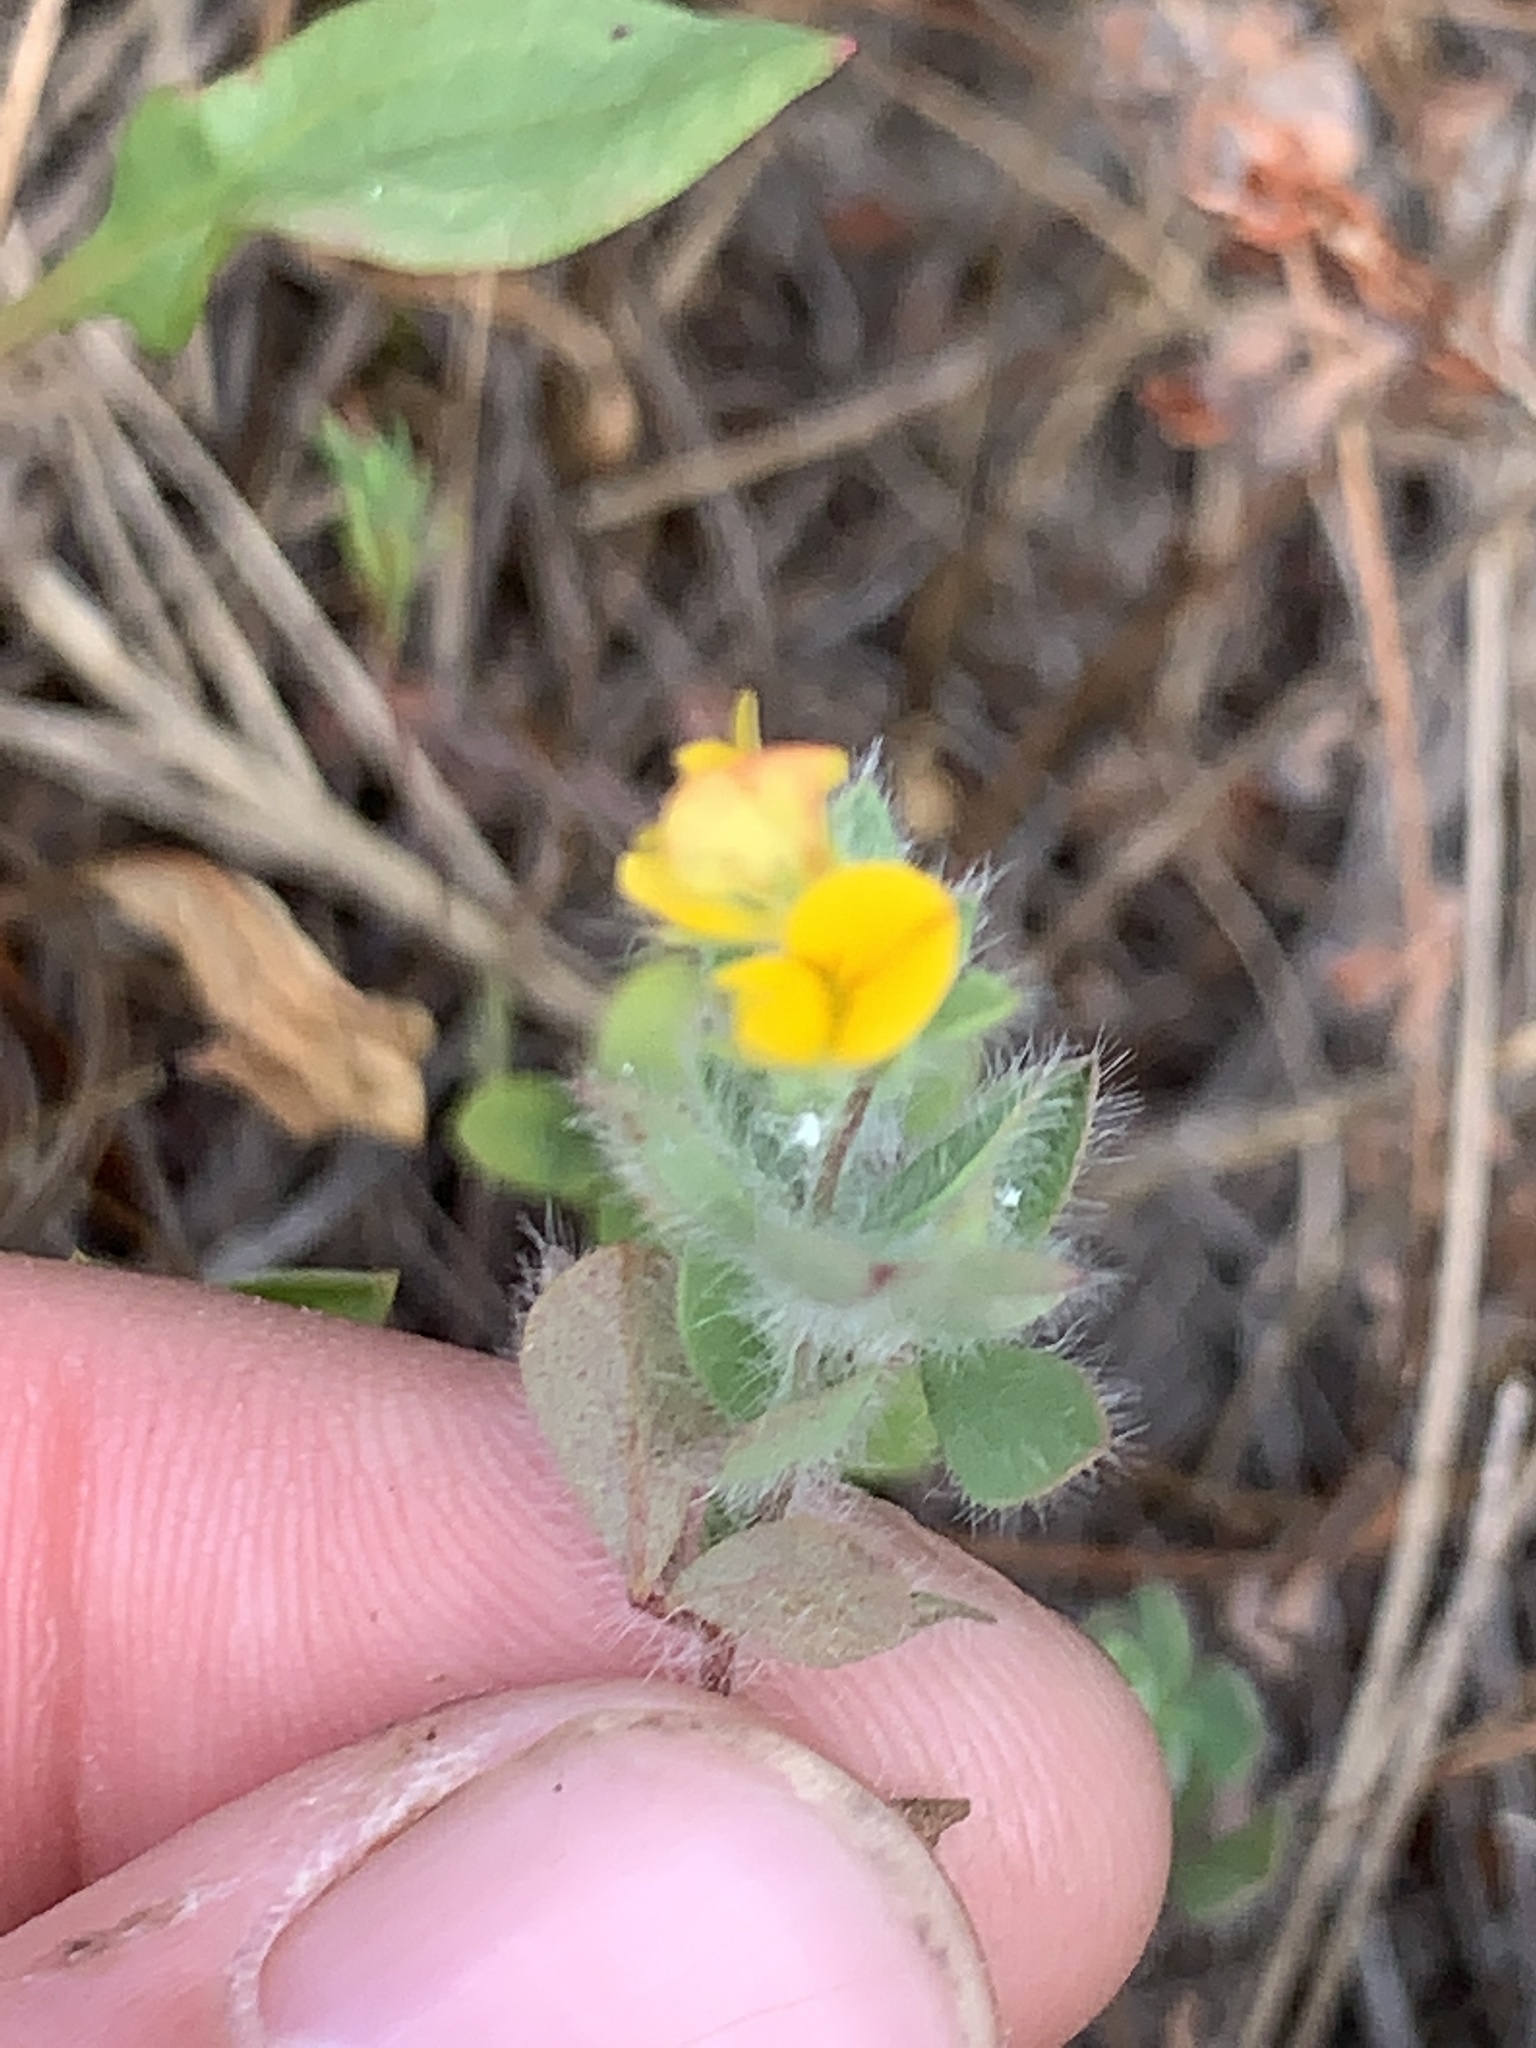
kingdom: Plantae
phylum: Tracheophyta
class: Magnoliopsida
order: Fabales
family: Fabaceae
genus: Lotus
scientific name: Lotus subbiflorus
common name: Hairy bird's-foot trefoil
